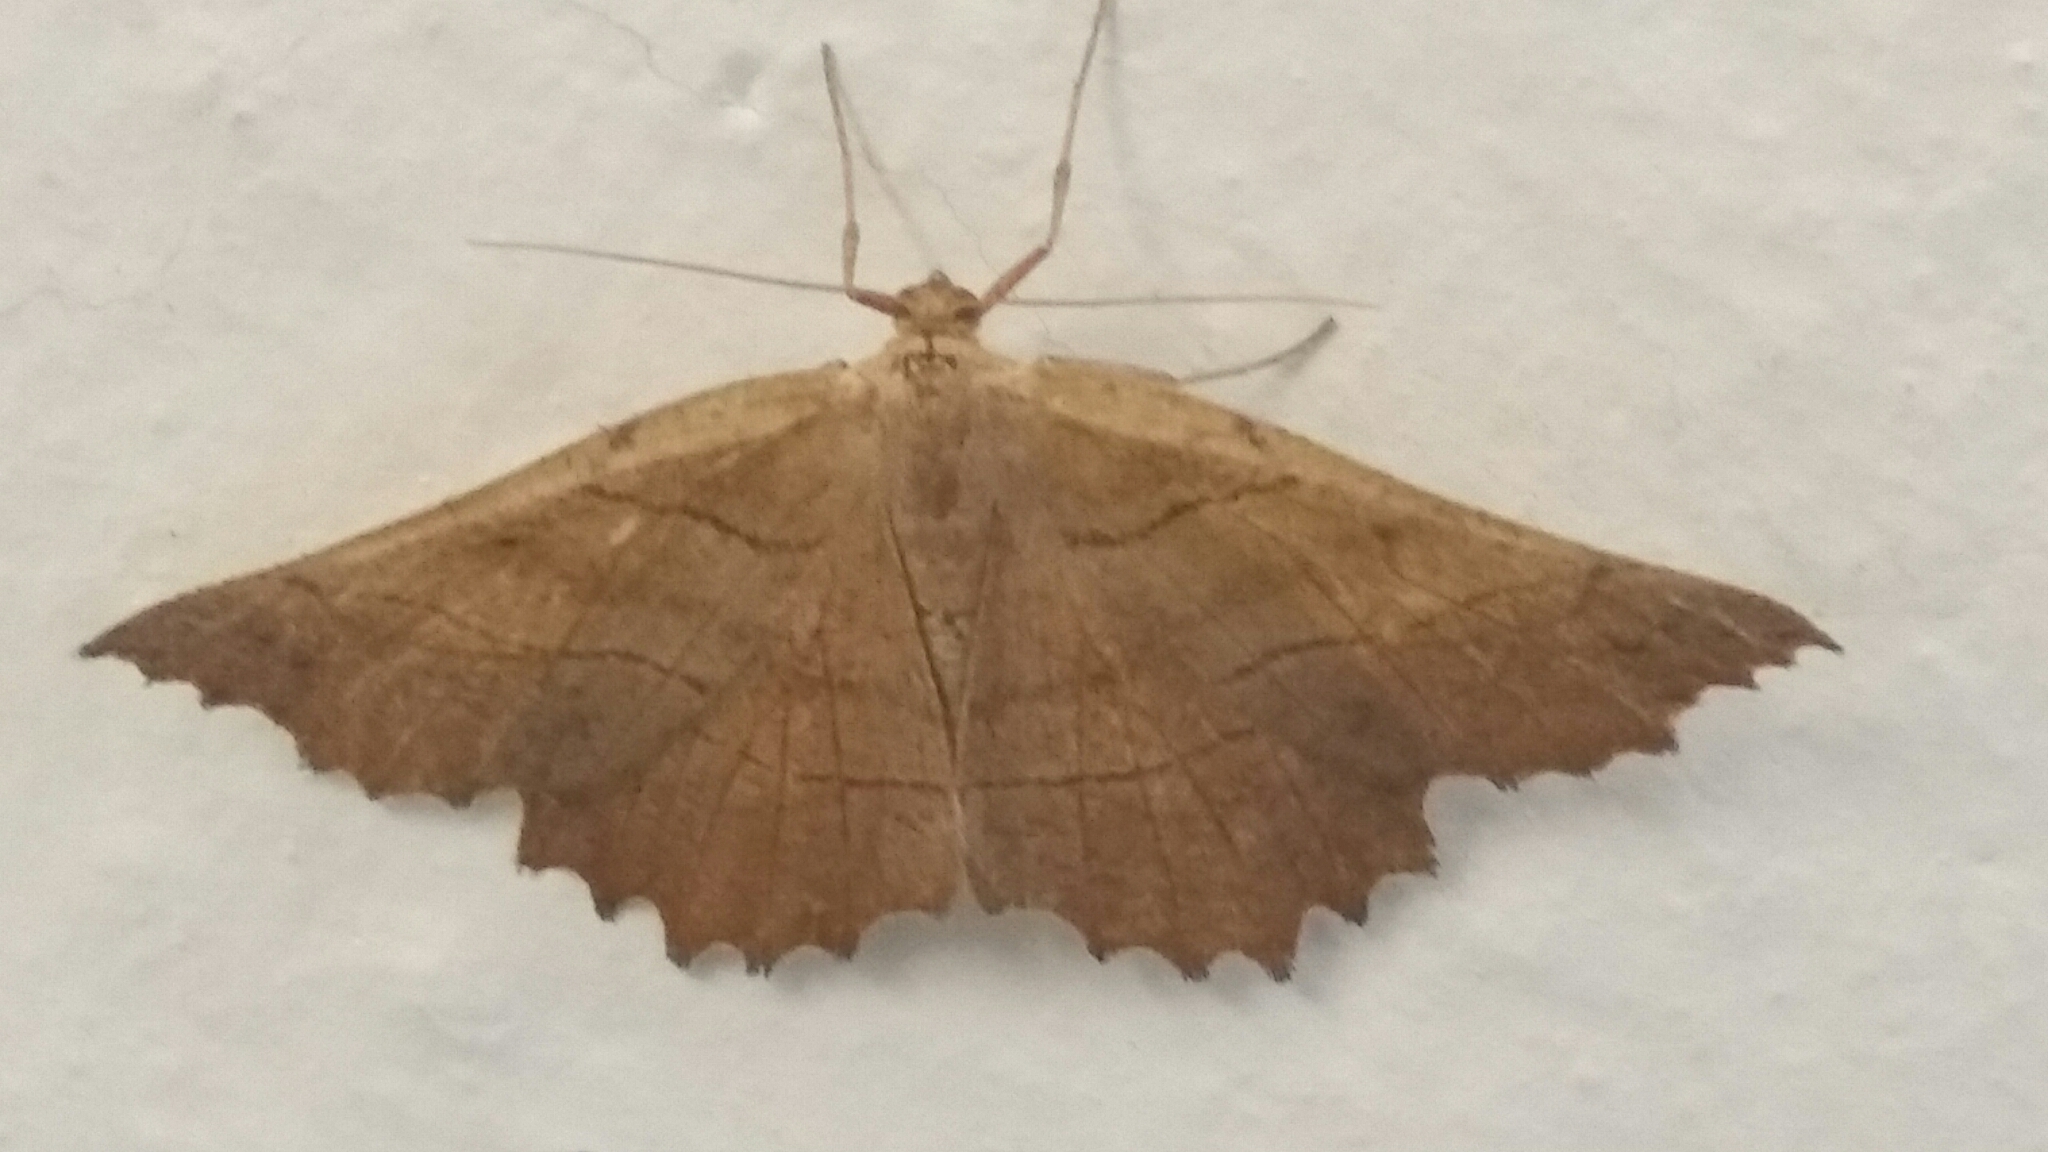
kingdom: Animalia
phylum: Arthropoda
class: Insecta
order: Lepidoptera
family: Geometridae
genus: Euchlaena
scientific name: Euchlaena johnsonaria
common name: Johnson's euchlaena
